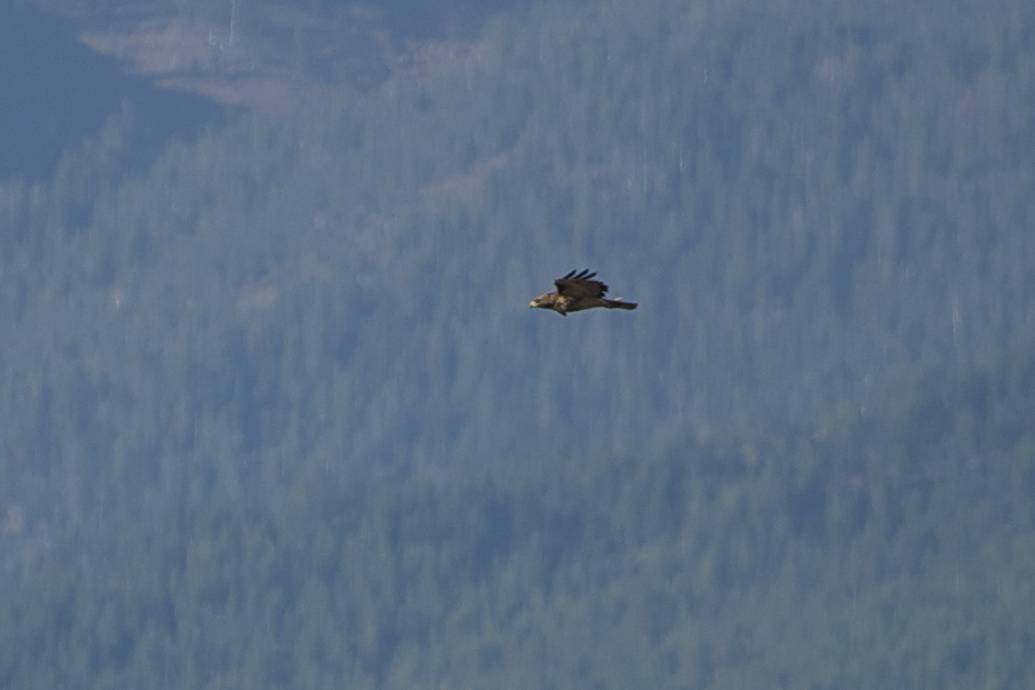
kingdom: Animalia
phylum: Chordata
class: Aves
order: Accipitriformes
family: Accipitridae
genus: Buteo
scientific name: Buteo jamaicensis
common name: Red-tailed hawk
